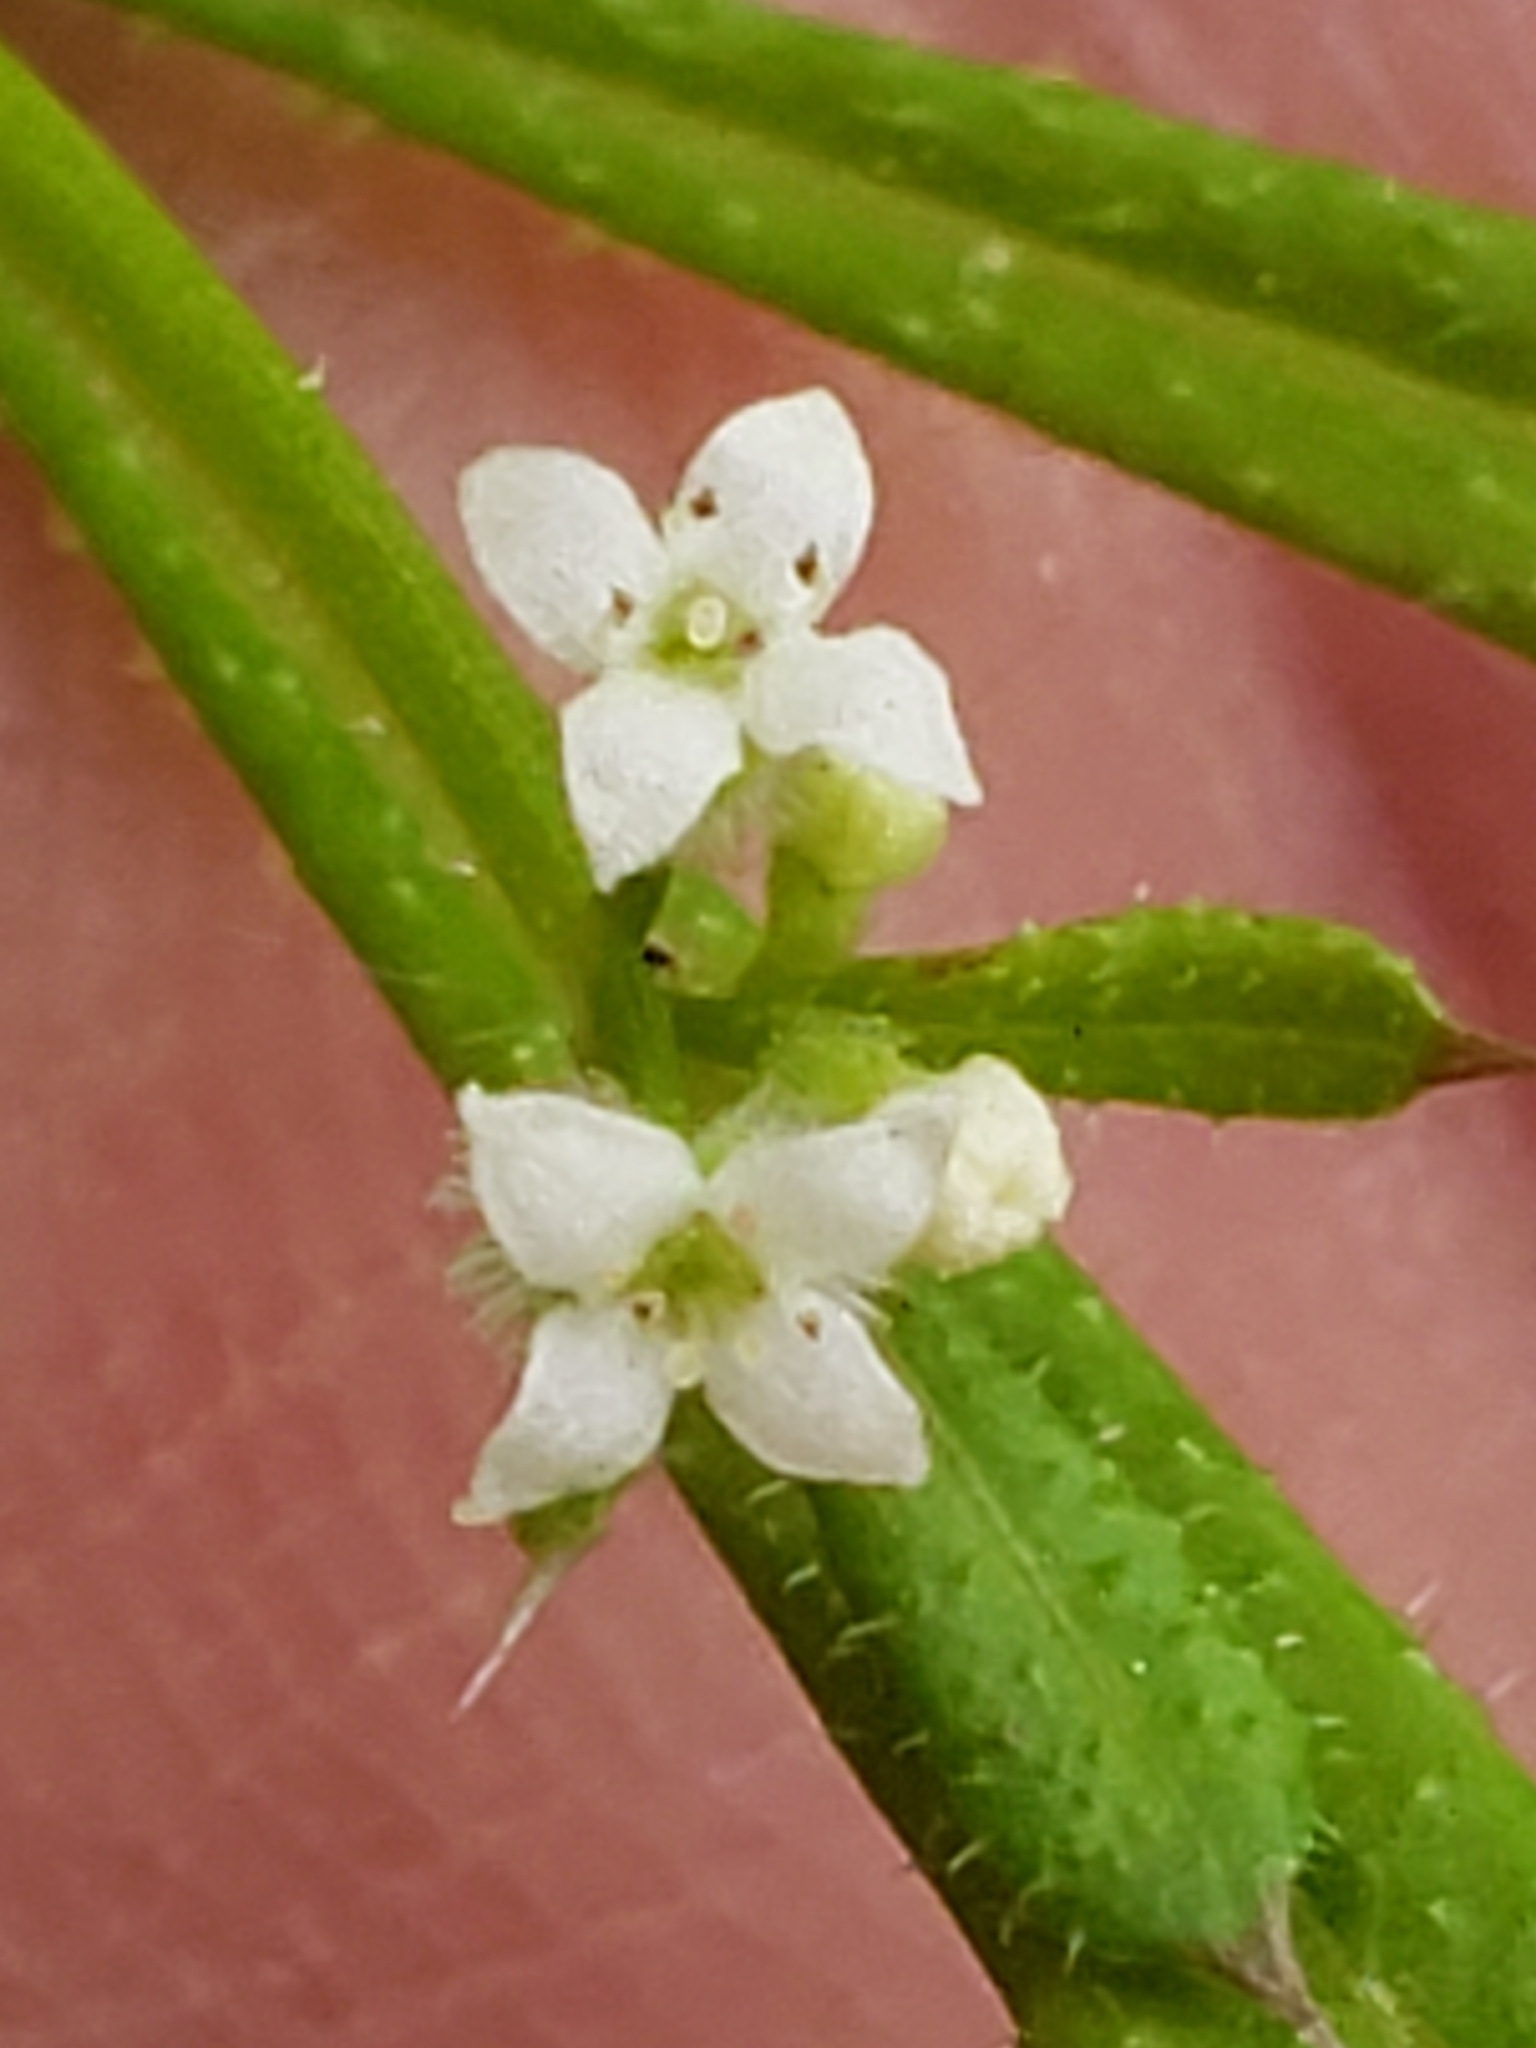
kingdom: Plantae
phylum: Tracheophyta
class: Magnoliopsida
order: Gentianales
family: Rubiaceae
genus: Galium
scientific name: Galium aparine
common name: Cleavers
